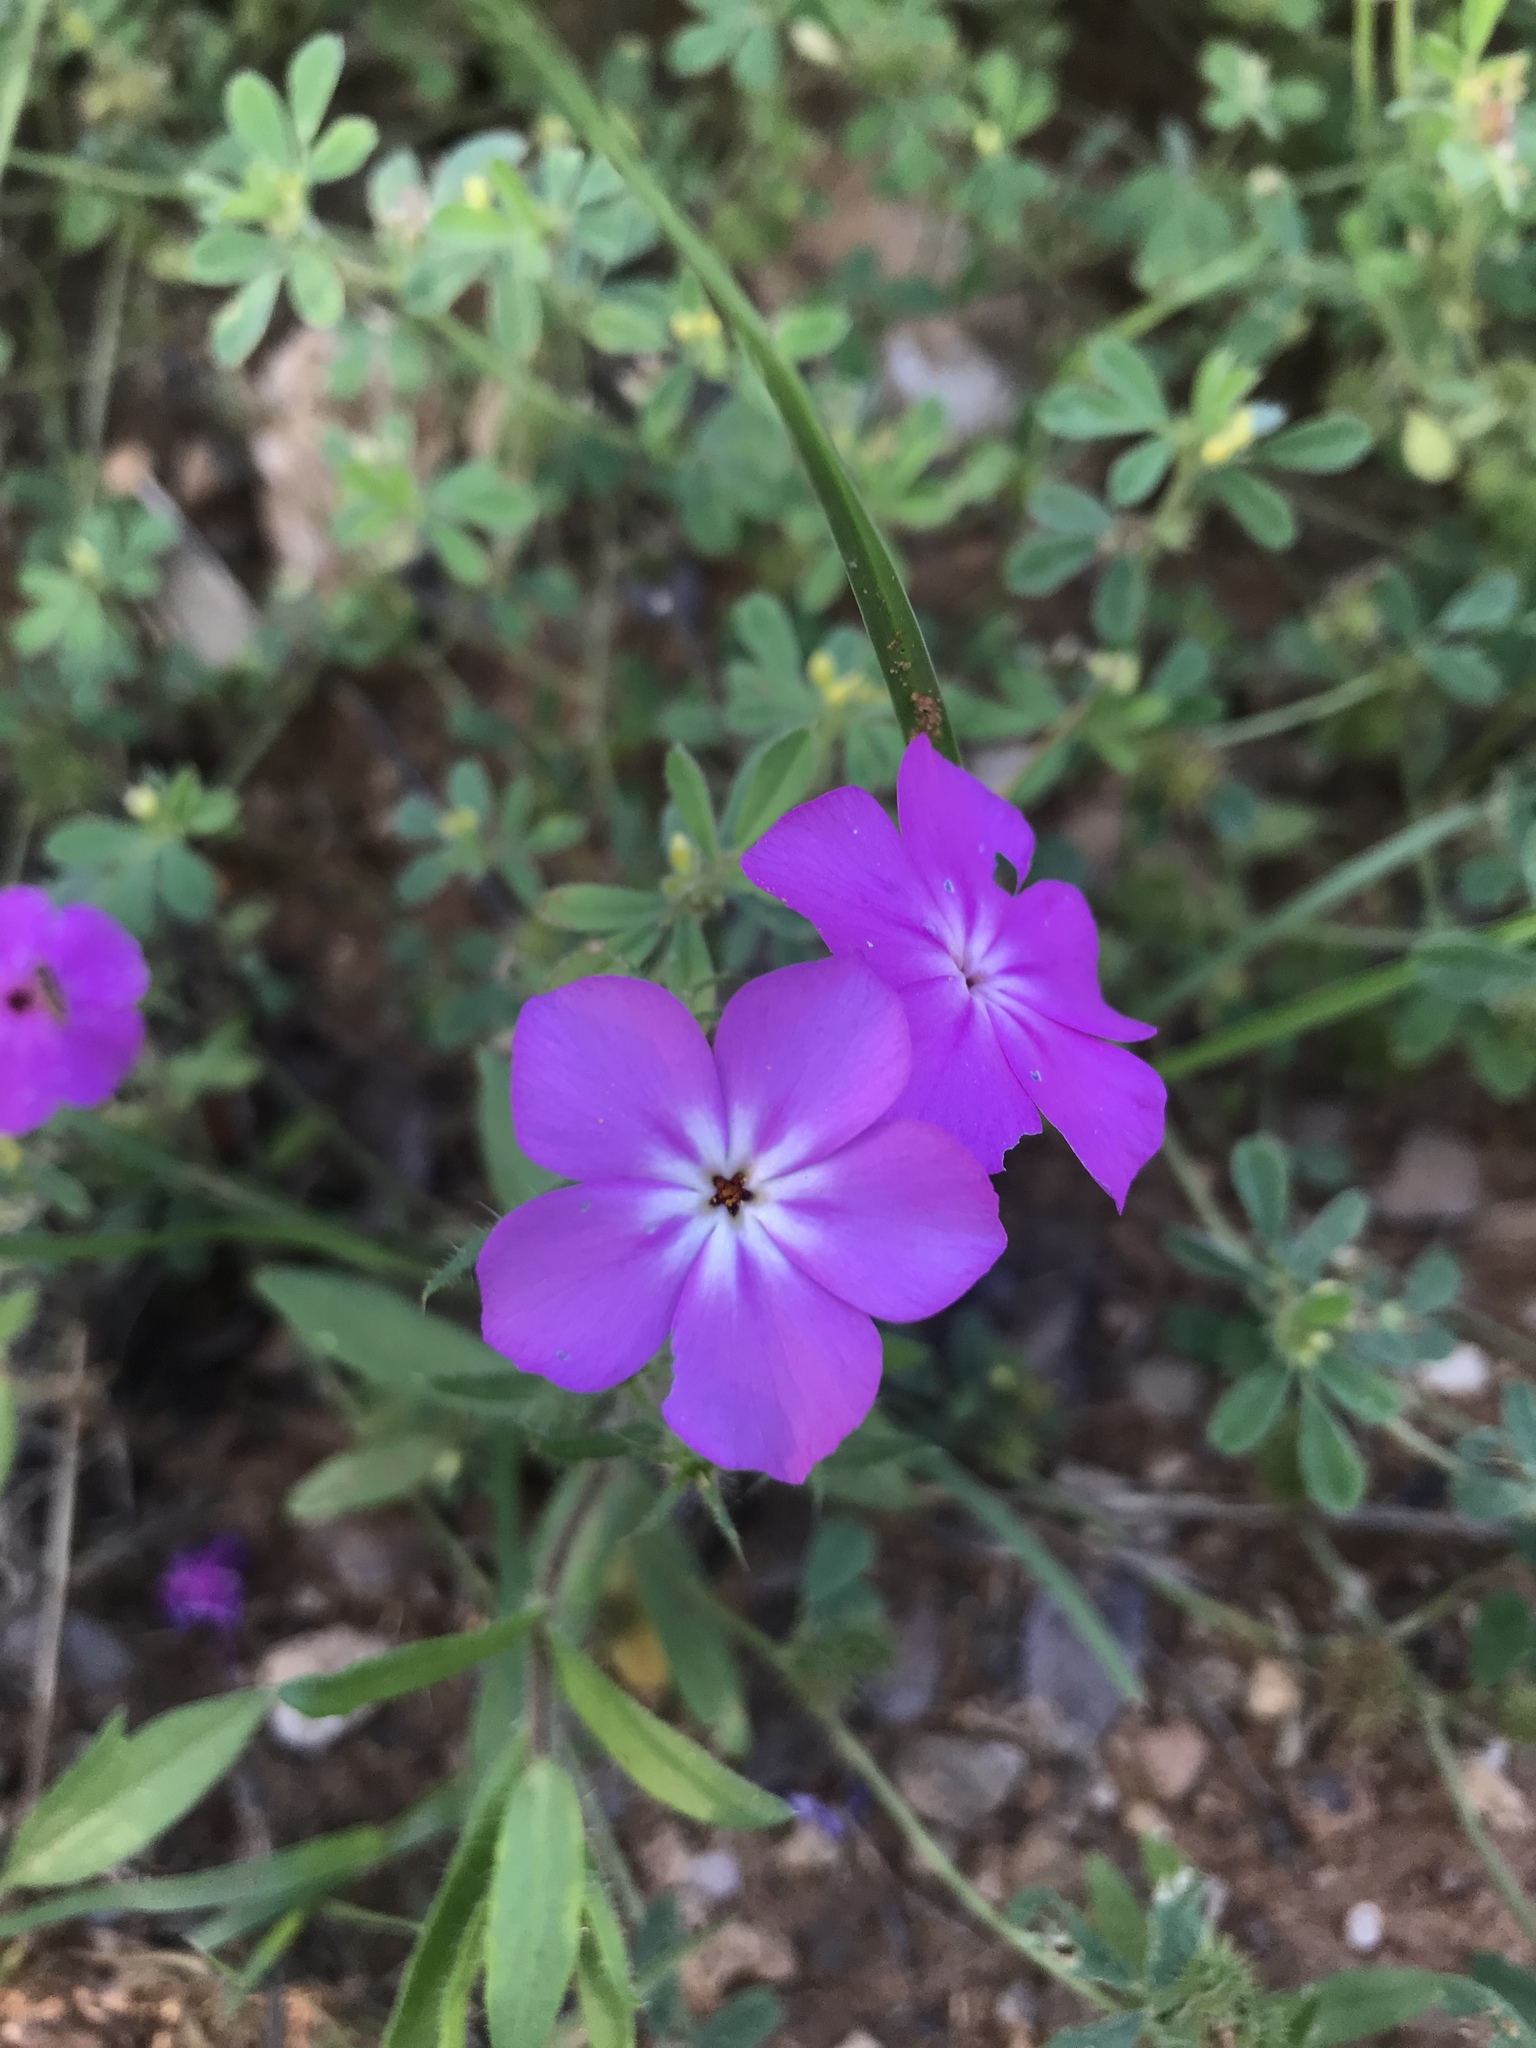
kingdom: Plantae
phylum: Tracheophyta
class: Magnoliopsida
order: Ericales
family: Polemoniaceae
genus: Phlox
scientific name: Phlox drummondii
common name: Drummond's phlox
